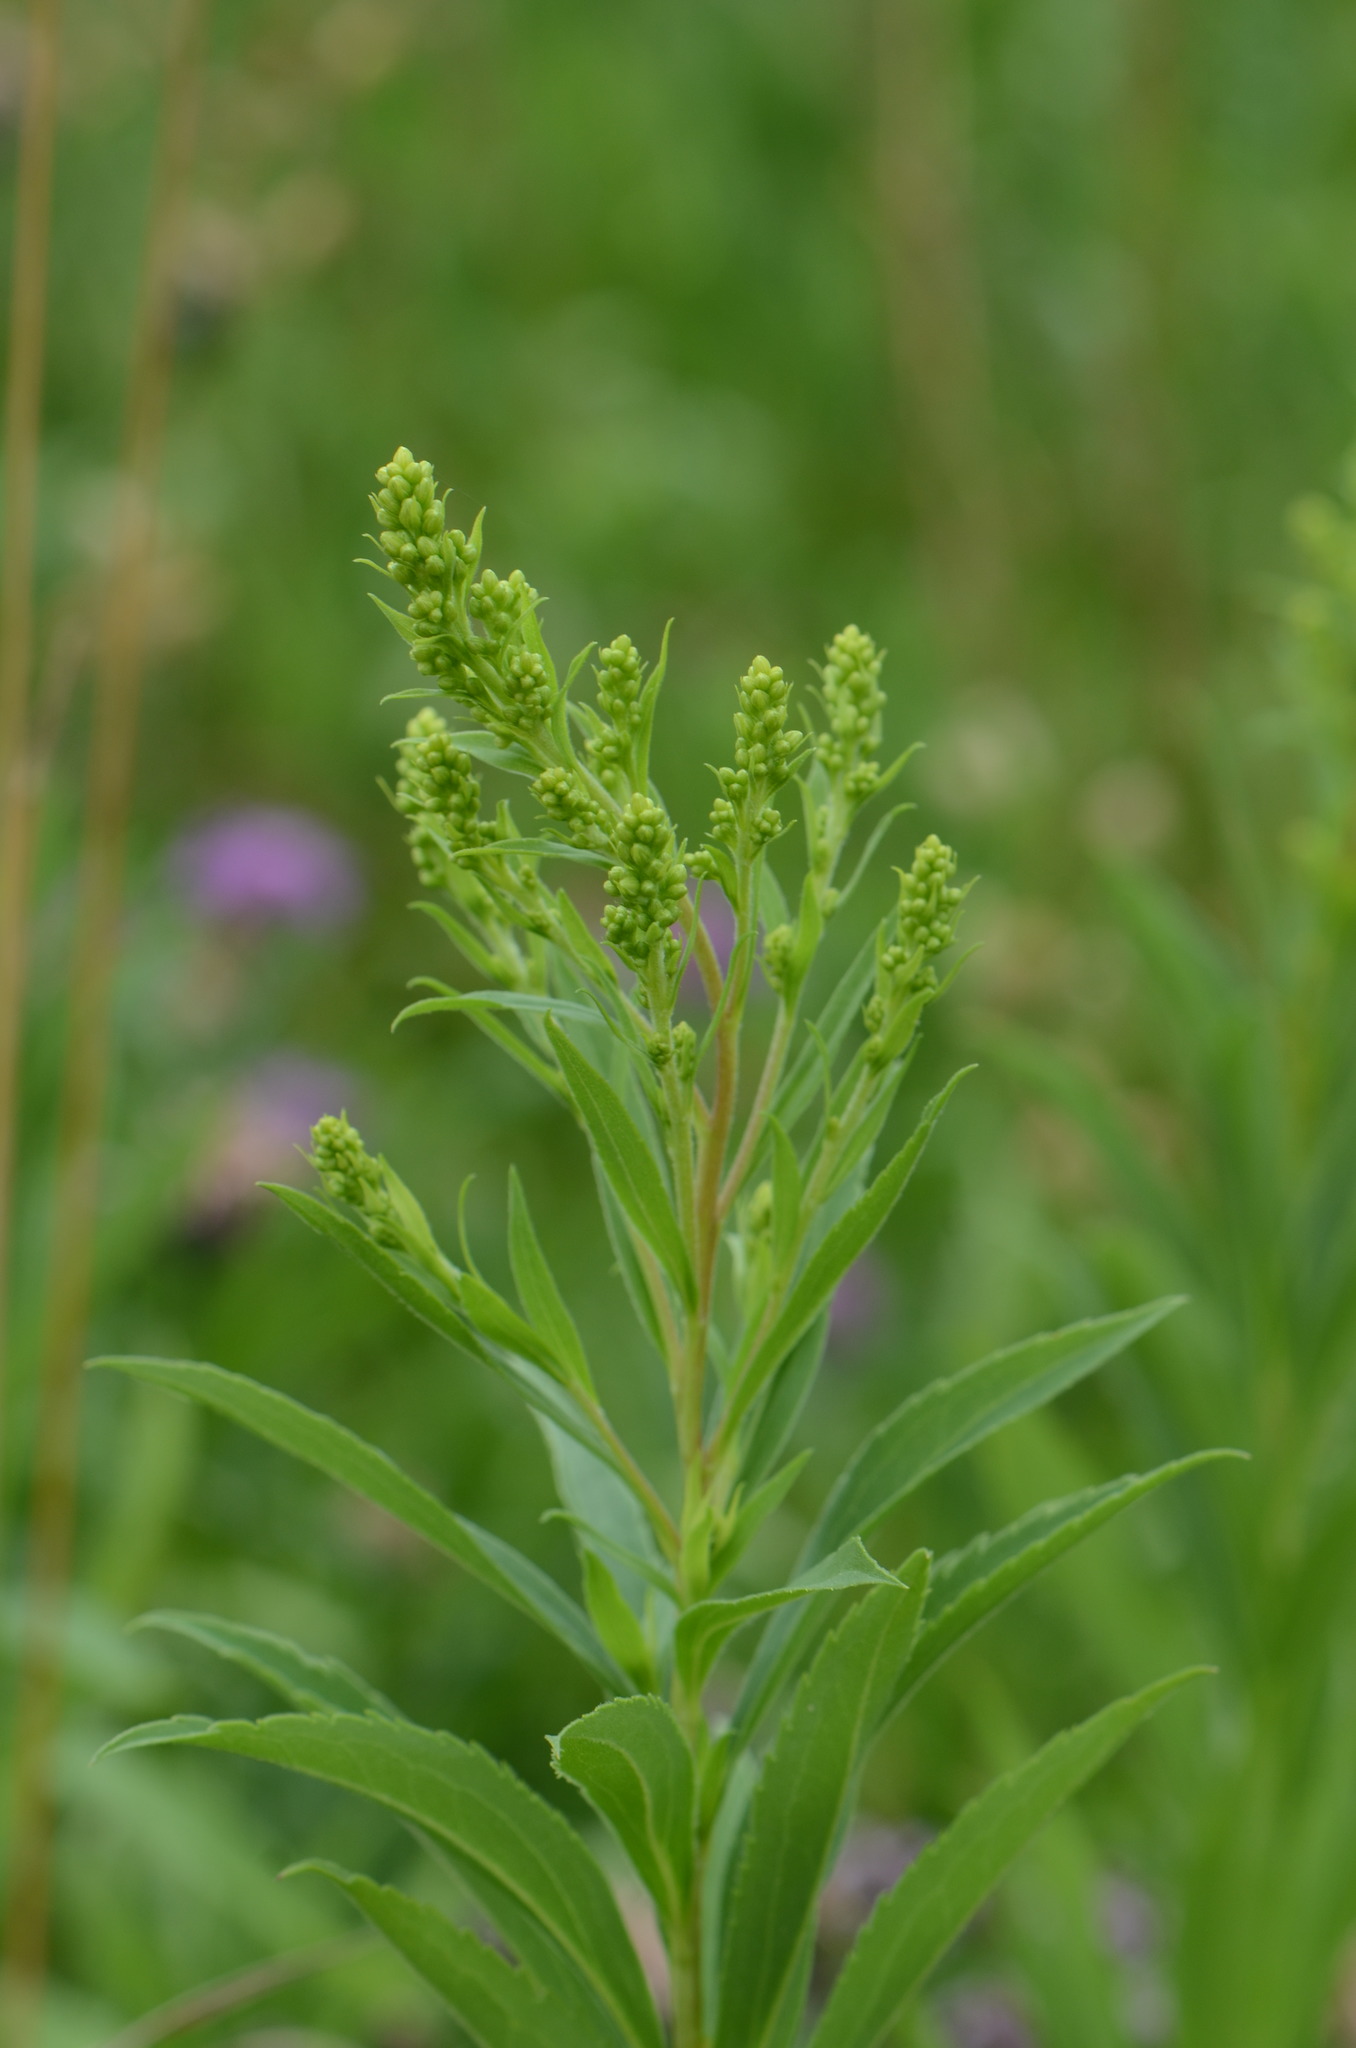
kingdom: Plantae
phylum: Tracheophyta
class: Magnoliopsida
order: Asterales
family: Asteraceae
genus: Solidago
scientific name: Solidago gigantea
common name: Giant goldenrod
